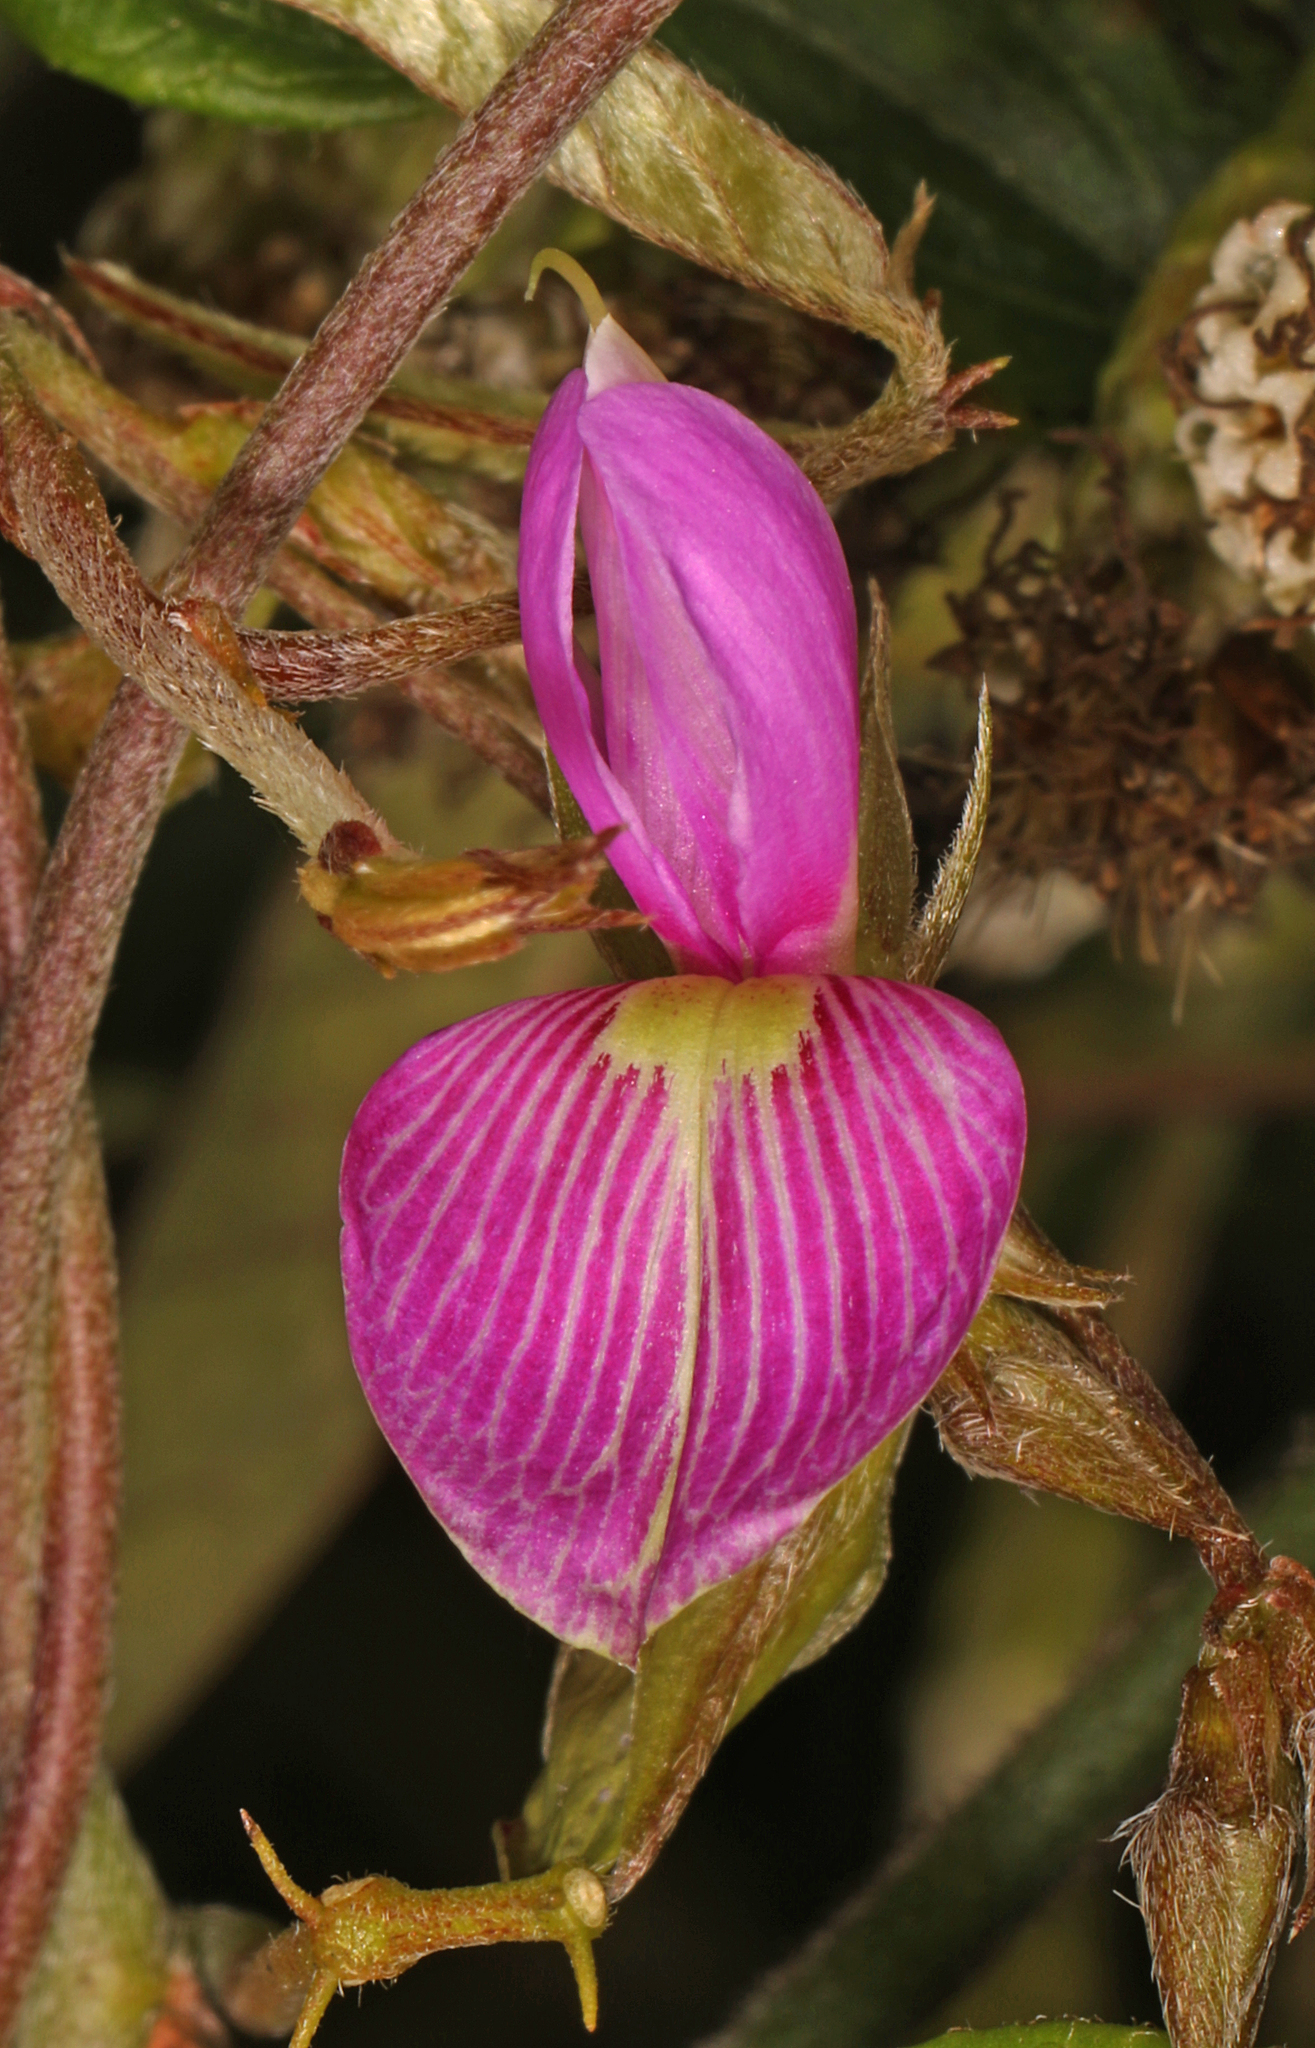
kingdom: Plantae
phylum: Tracheophyta
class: Magnoliopsida
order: Fabales
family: Fabaceae
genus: Galactia
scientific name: Galactia striata
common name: Florida hammock milkpea
